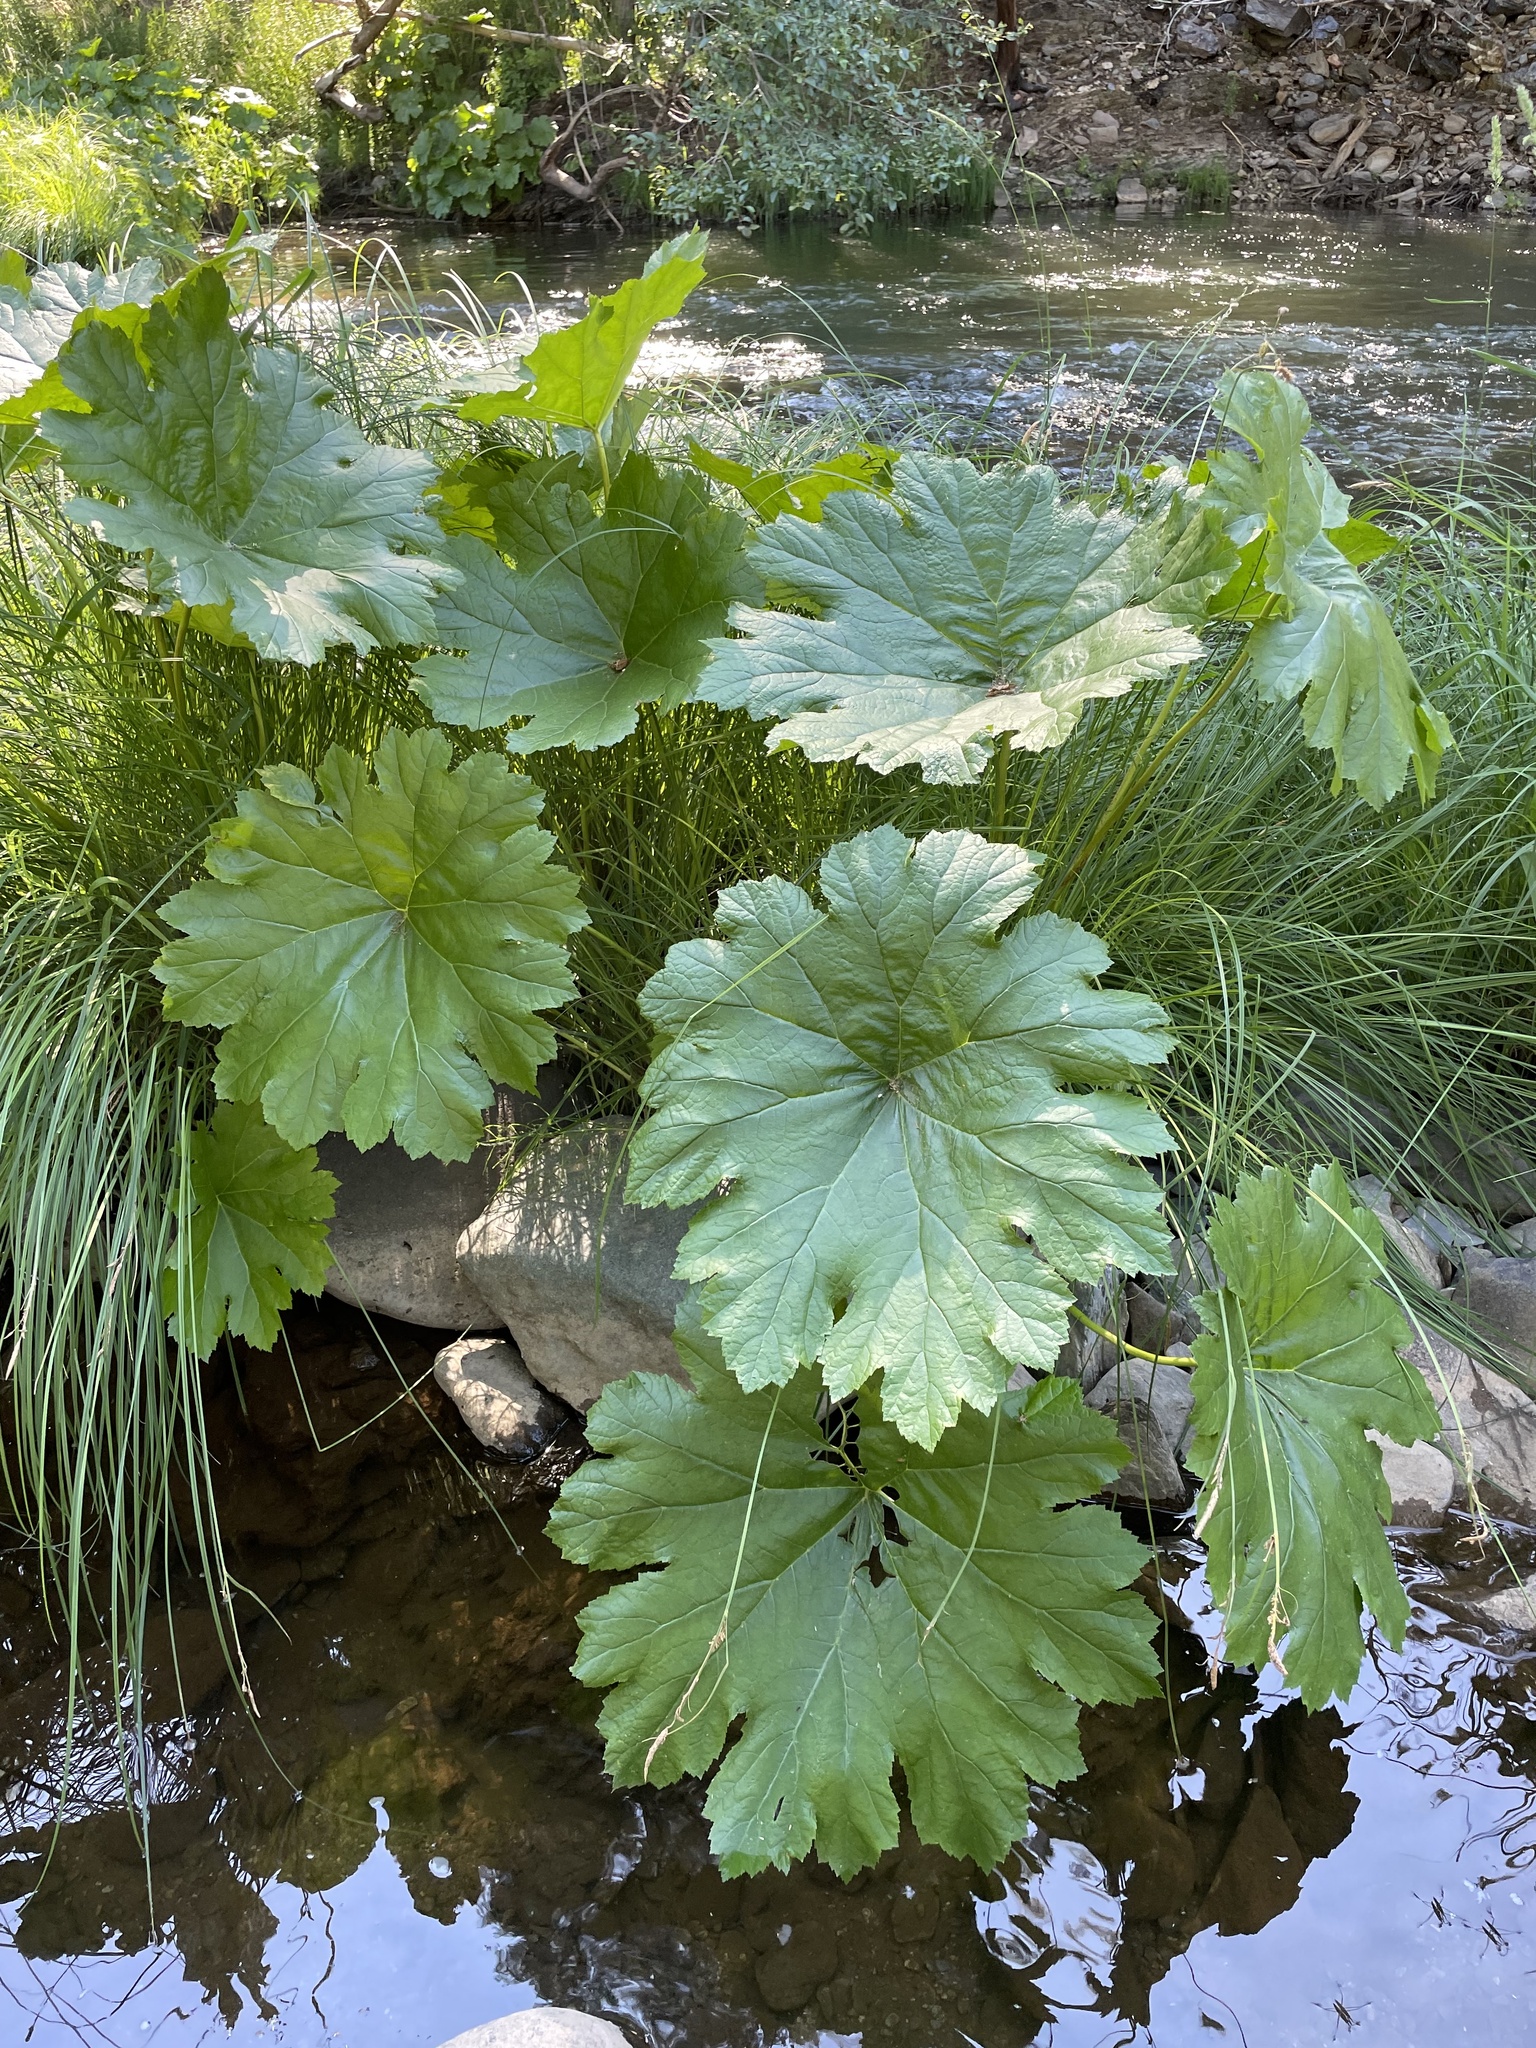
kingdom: Plantae
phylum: Tracheophyta
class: Magnoliopsida
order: Saxifragales
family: Saxifragaceae
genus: Darmera
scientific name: Darmera peltata
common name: Indian-rhubarb
